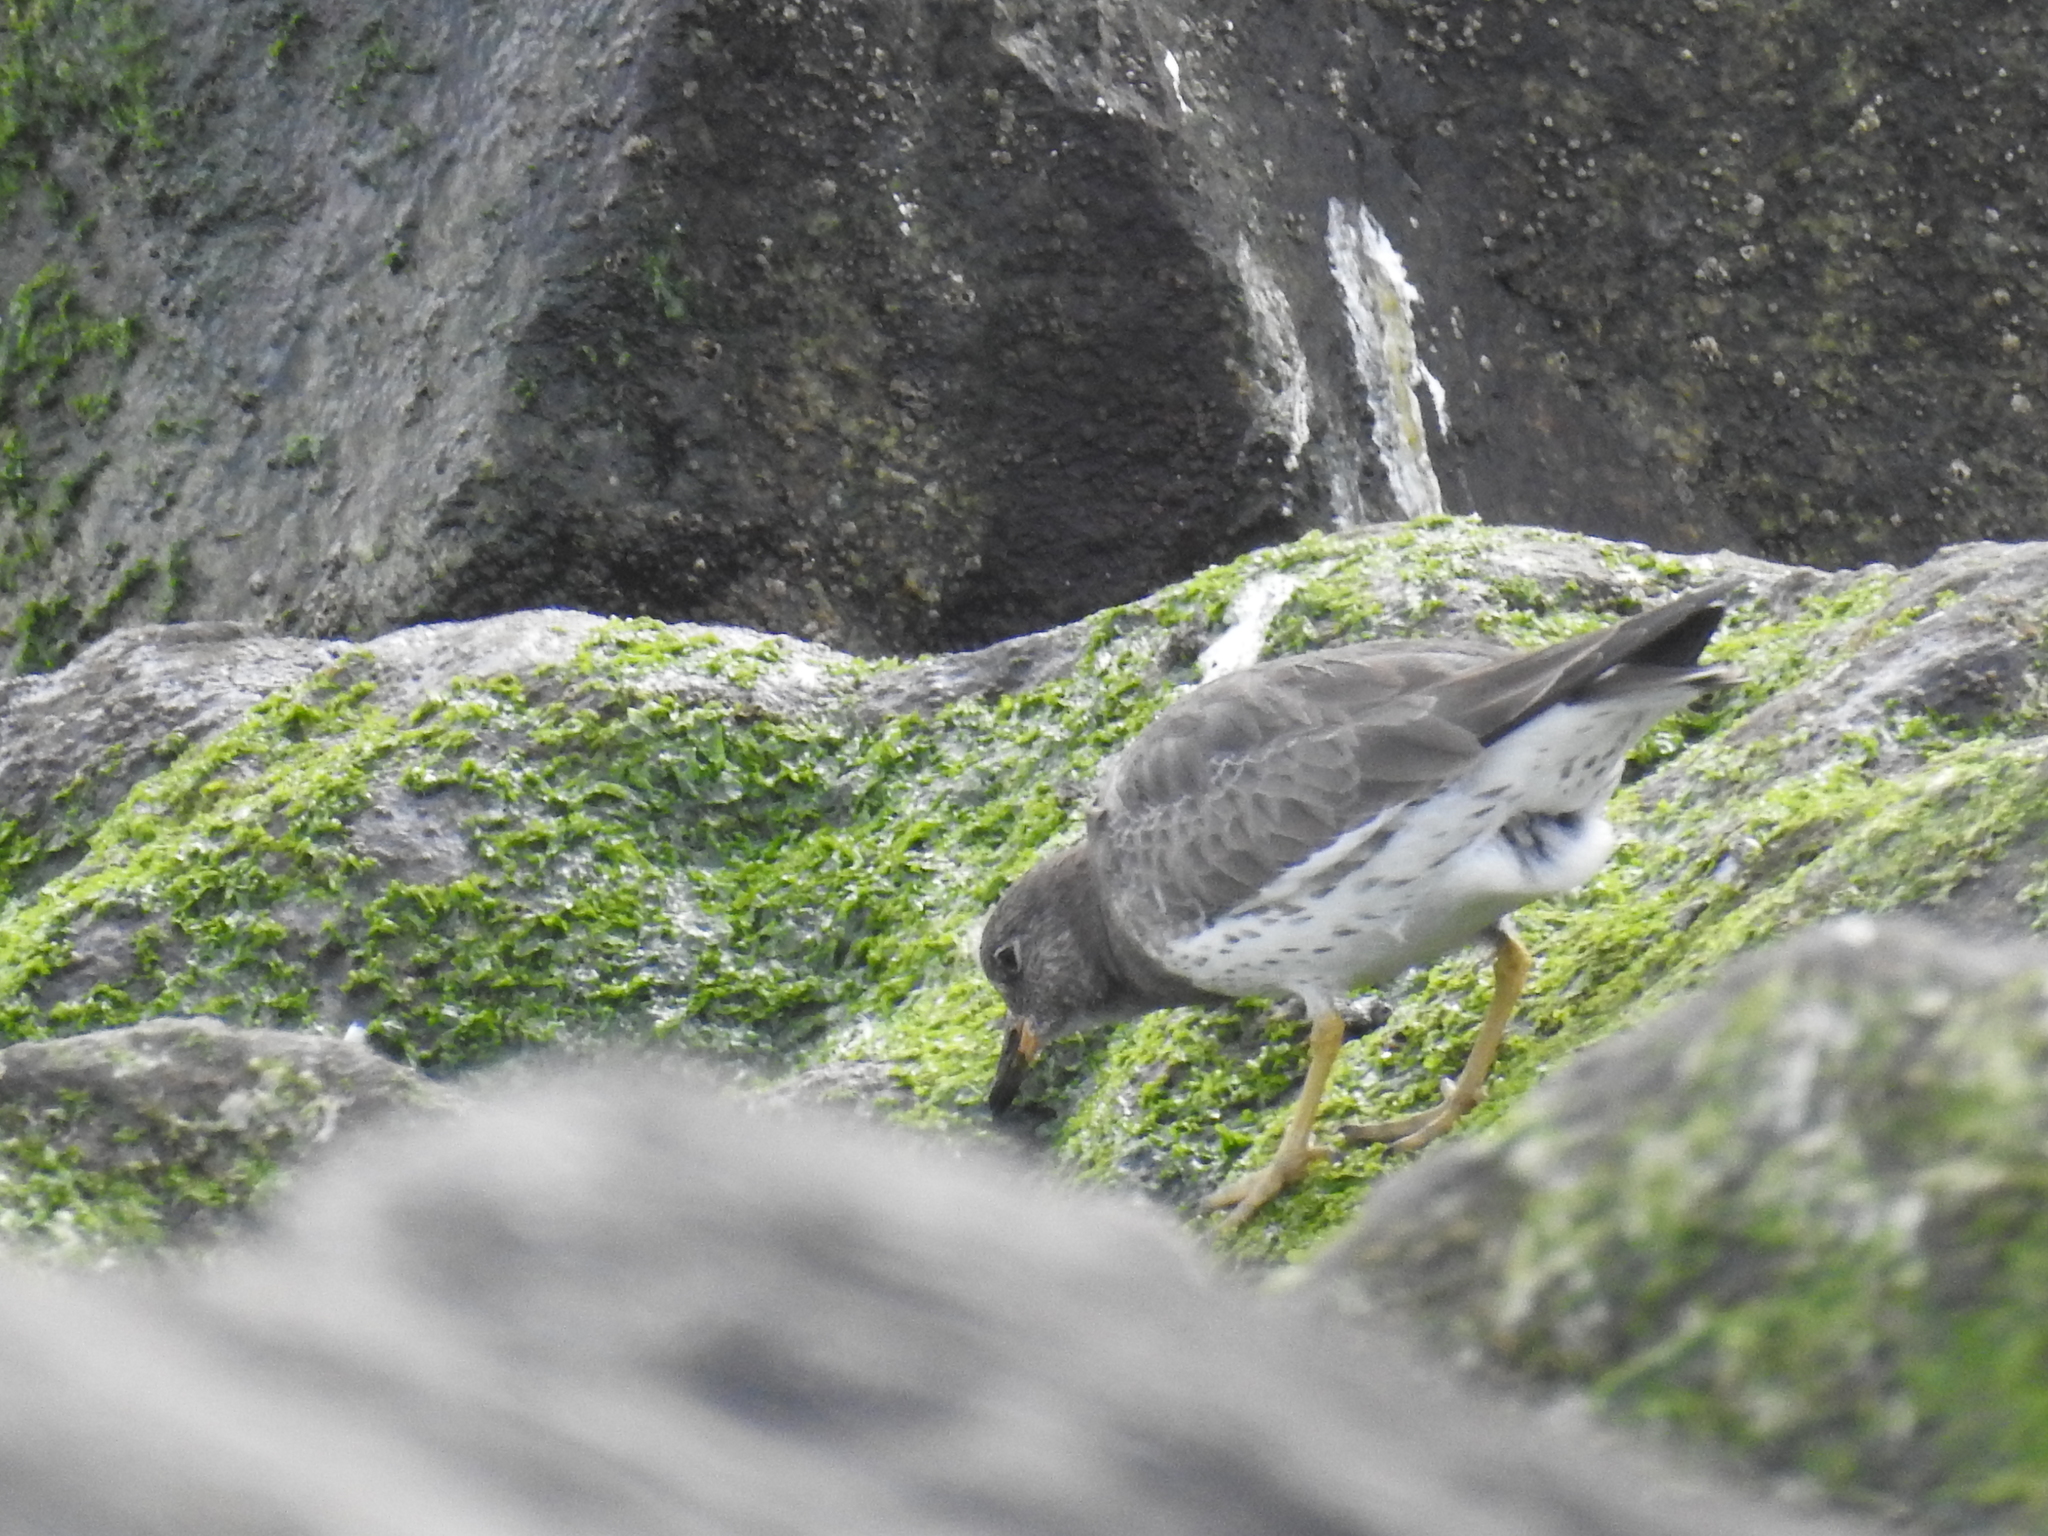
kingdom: Animalia
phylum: Chordata
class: Aves
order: Charadriiformes
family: Scolopacidae
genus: Calidris
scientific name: Calidris virgata
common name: Surfbird
